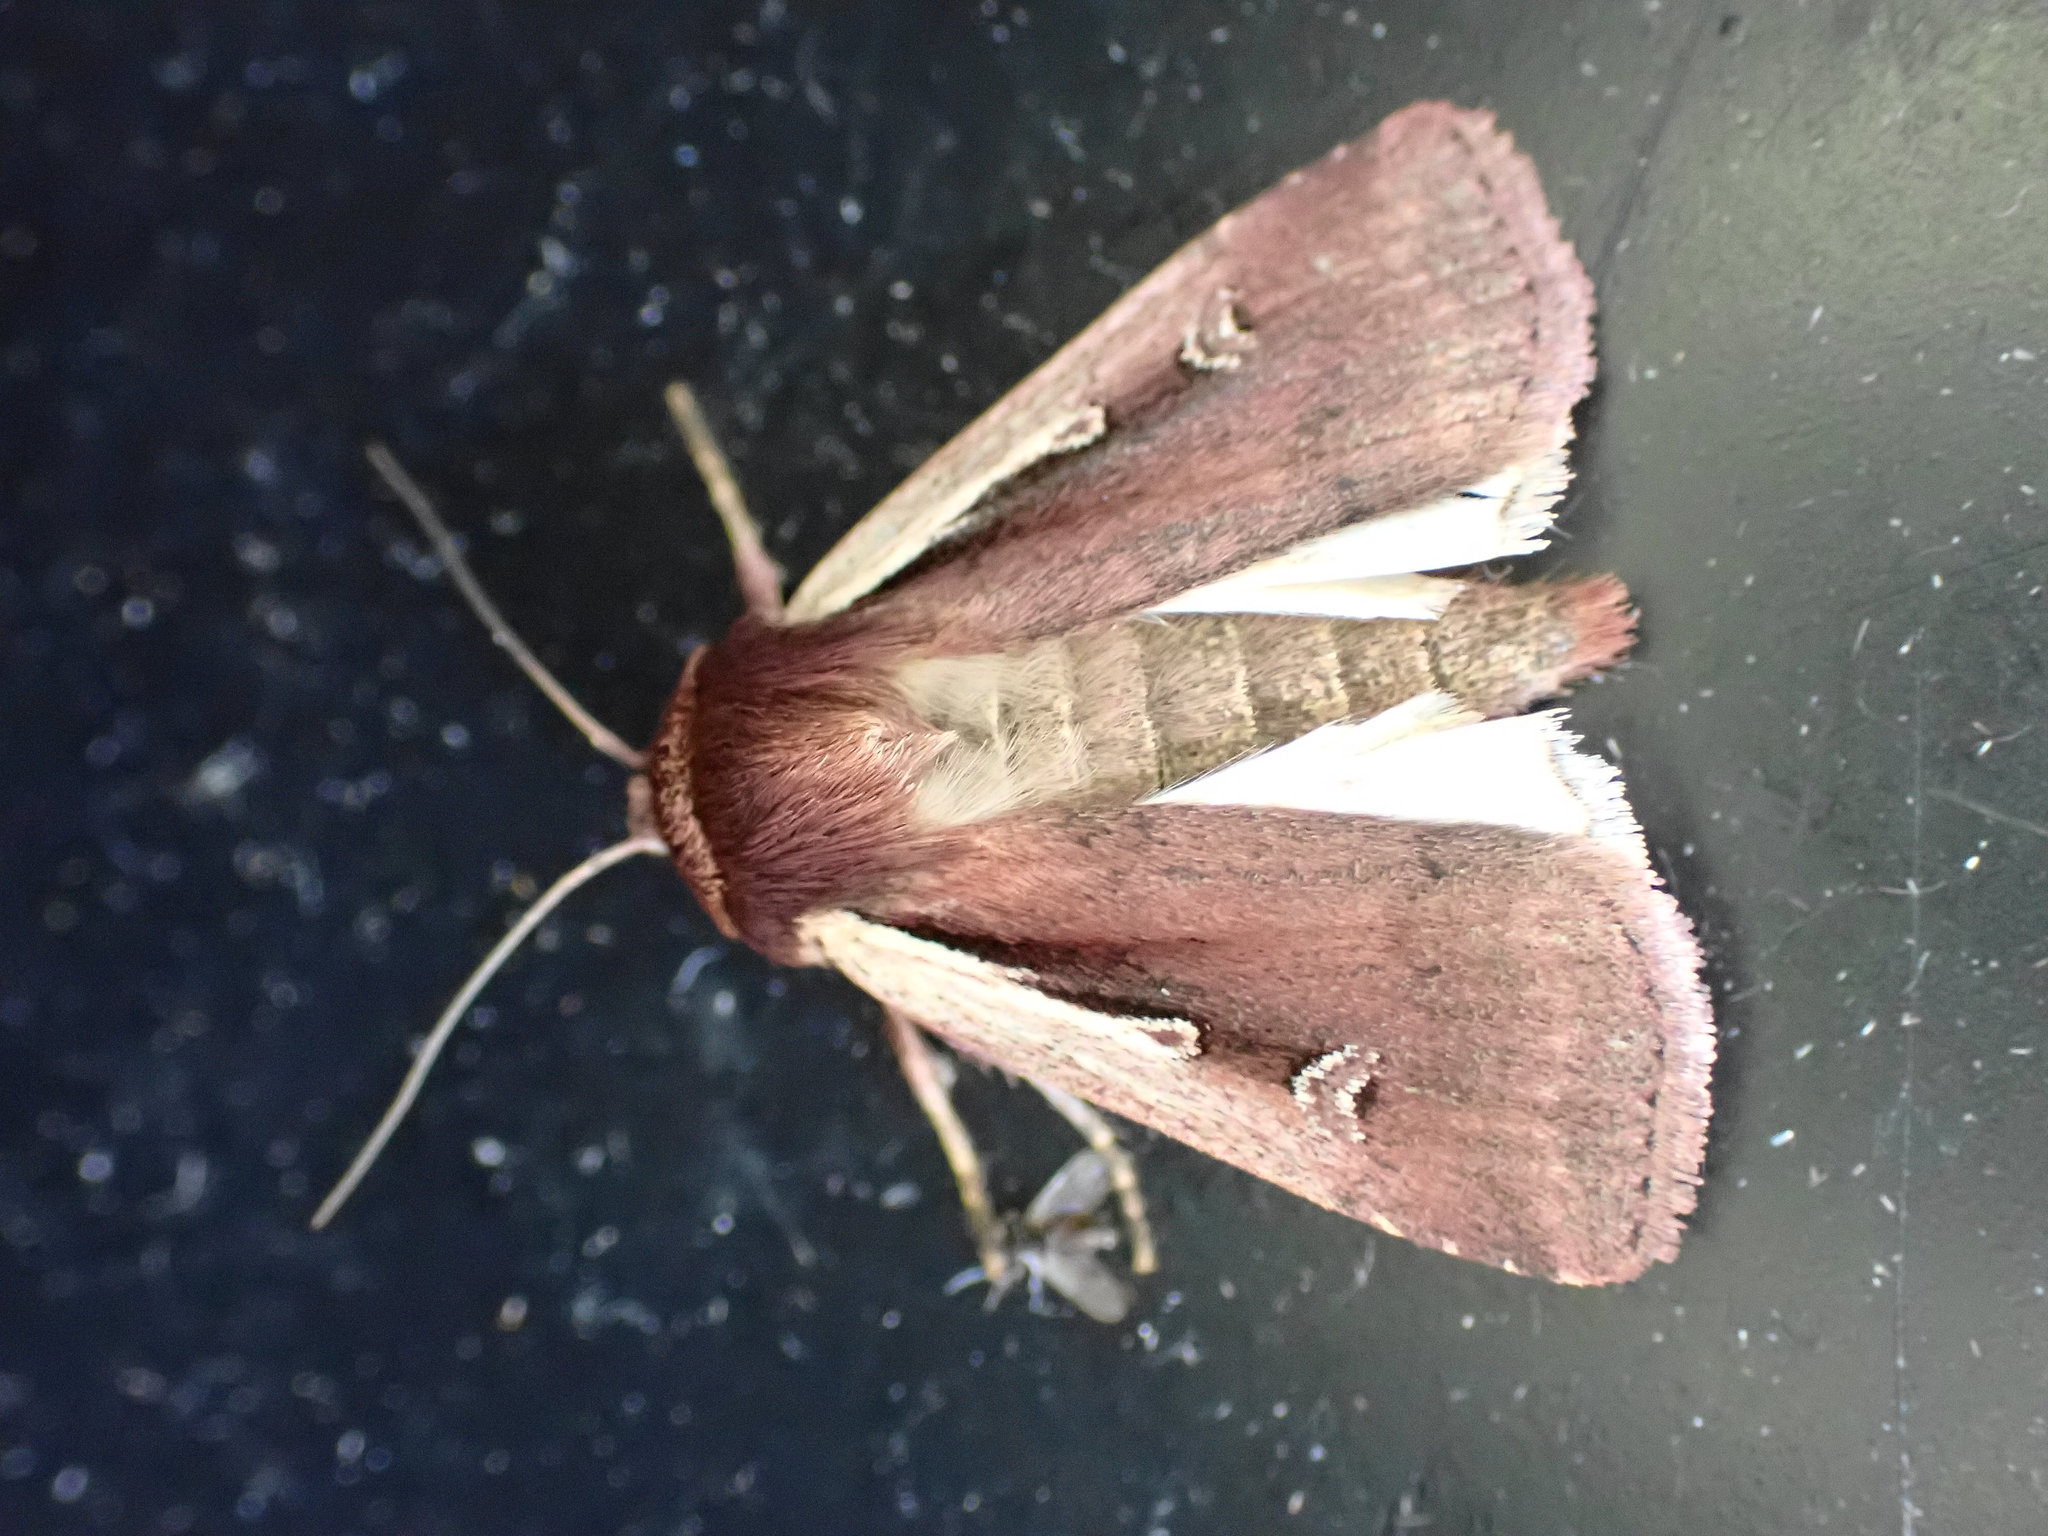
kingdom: Animalia
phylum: Arthropoda
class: Insecta
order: Lepidoptera
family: Noctuidae
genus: Ochropleura
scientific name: Ochropleura plecta
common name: Flame shoulder
